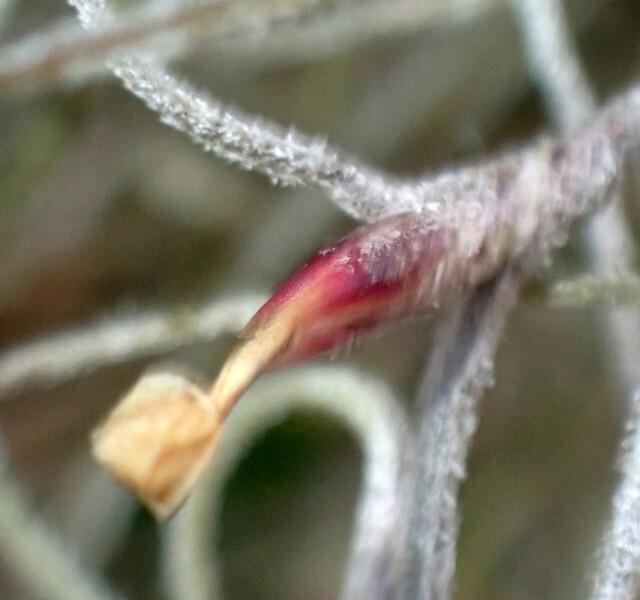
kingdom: Plantae
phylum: Tracheophyta
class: Liliopsida
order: Poales
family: Bromeliaceae
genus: Tillandsia
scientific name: Tillandsia usneoides
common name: Spanish moss
